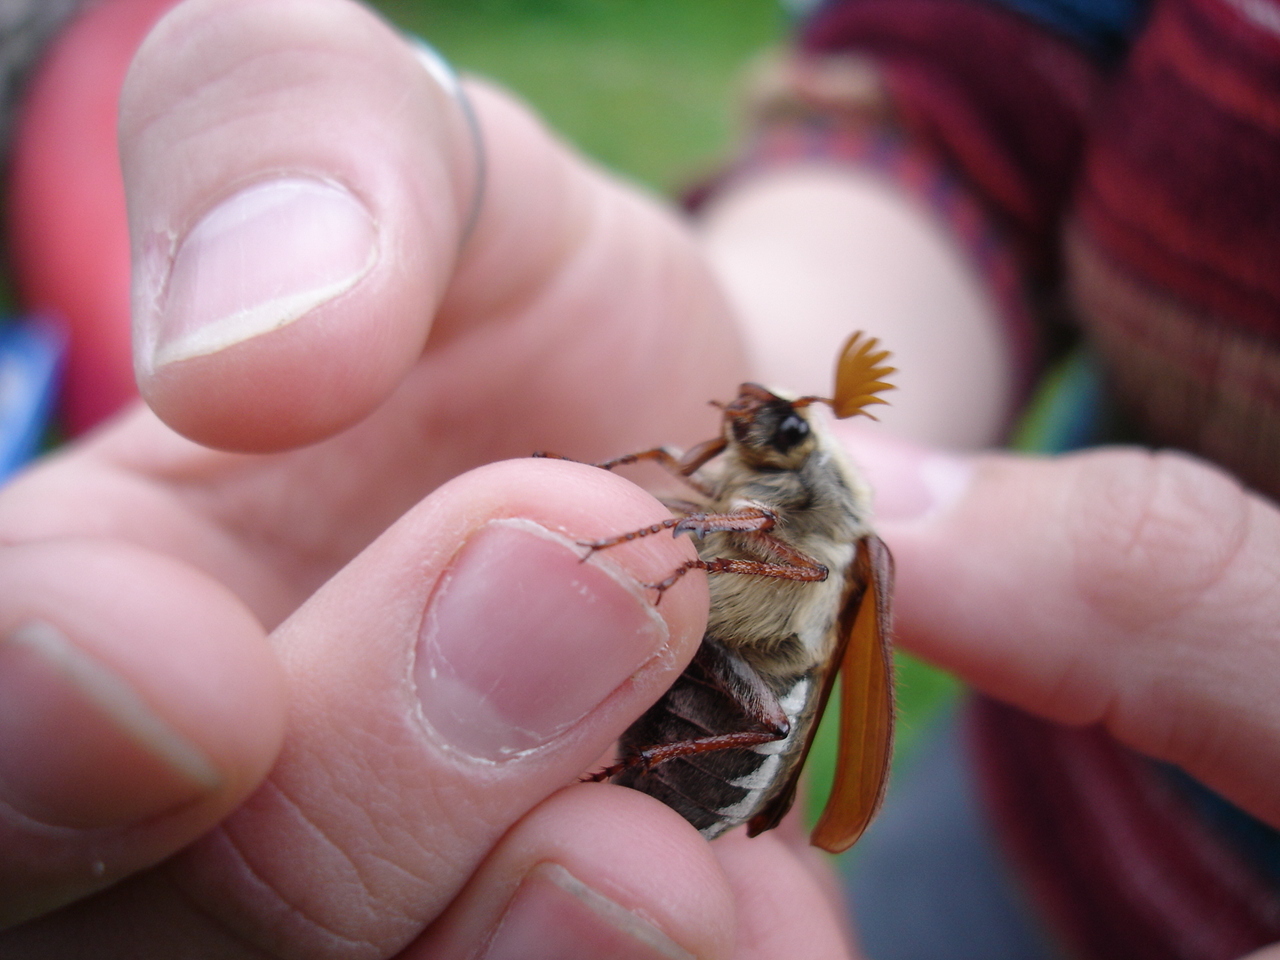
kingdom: Animalia
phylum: Arthropoda
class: Insecta
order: Coleoptera
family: Scarabaeidae
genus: Melolontha
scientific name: Melolontha melolontha
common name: Cockchafer maybeetle
